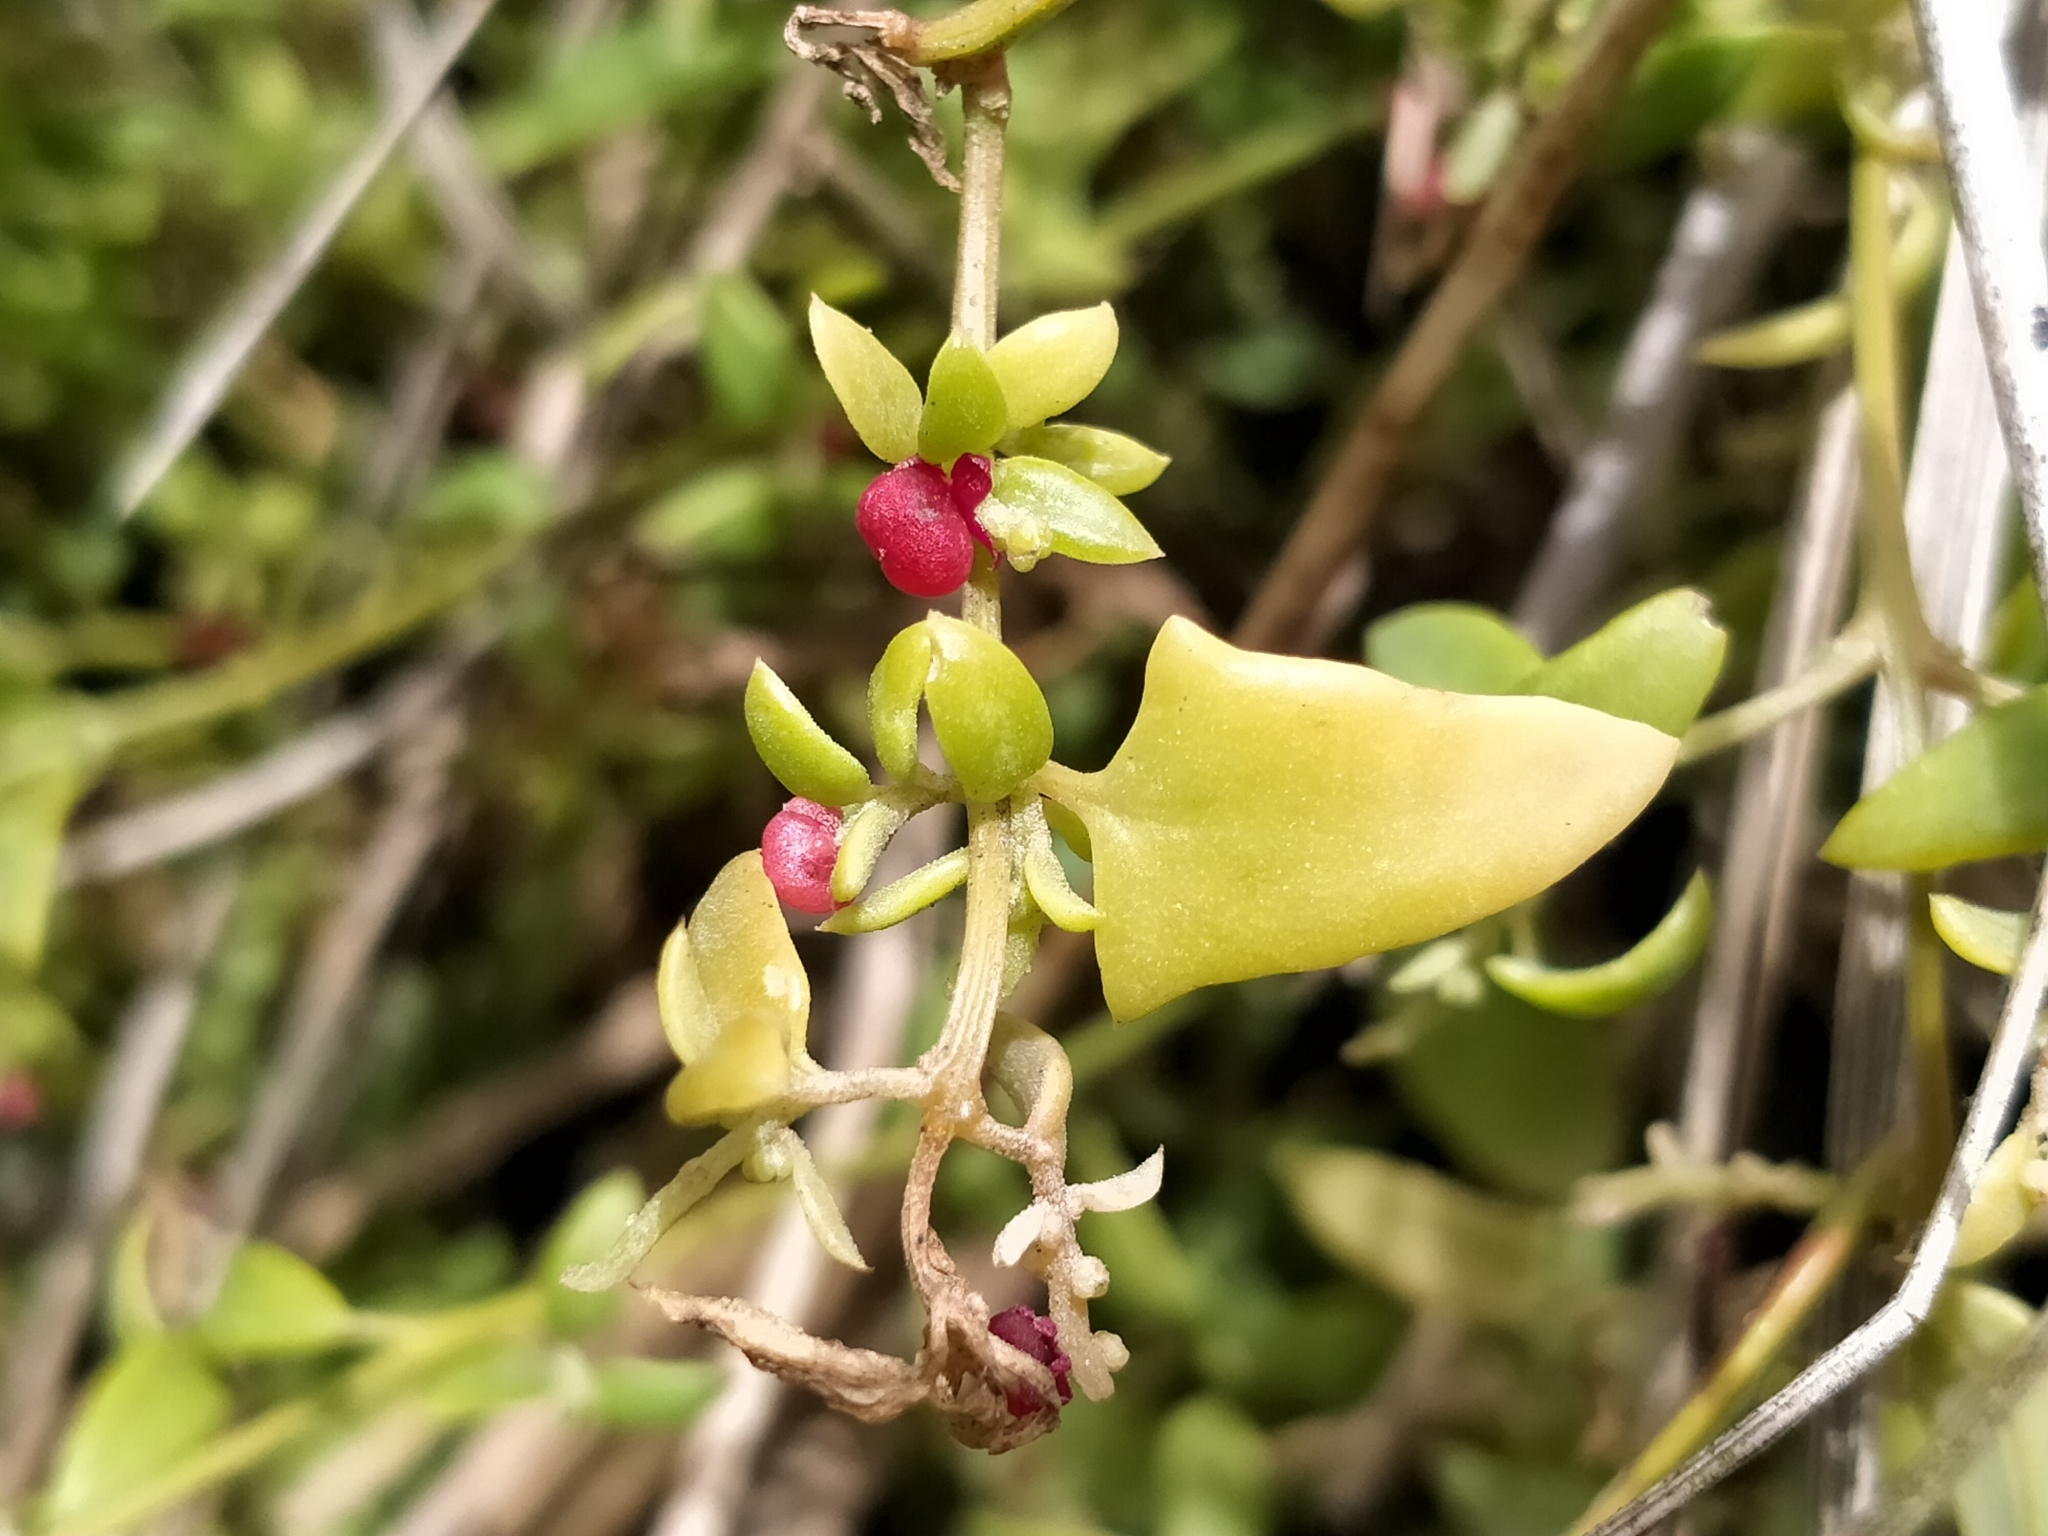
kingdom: Plantae
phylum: Tracheophyta
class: Magnoliopsida
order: Caryophyllales
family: Amaranthaceae
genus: Chenopodium
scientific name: Chenopodium nutans
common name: Climbing-saltbush
